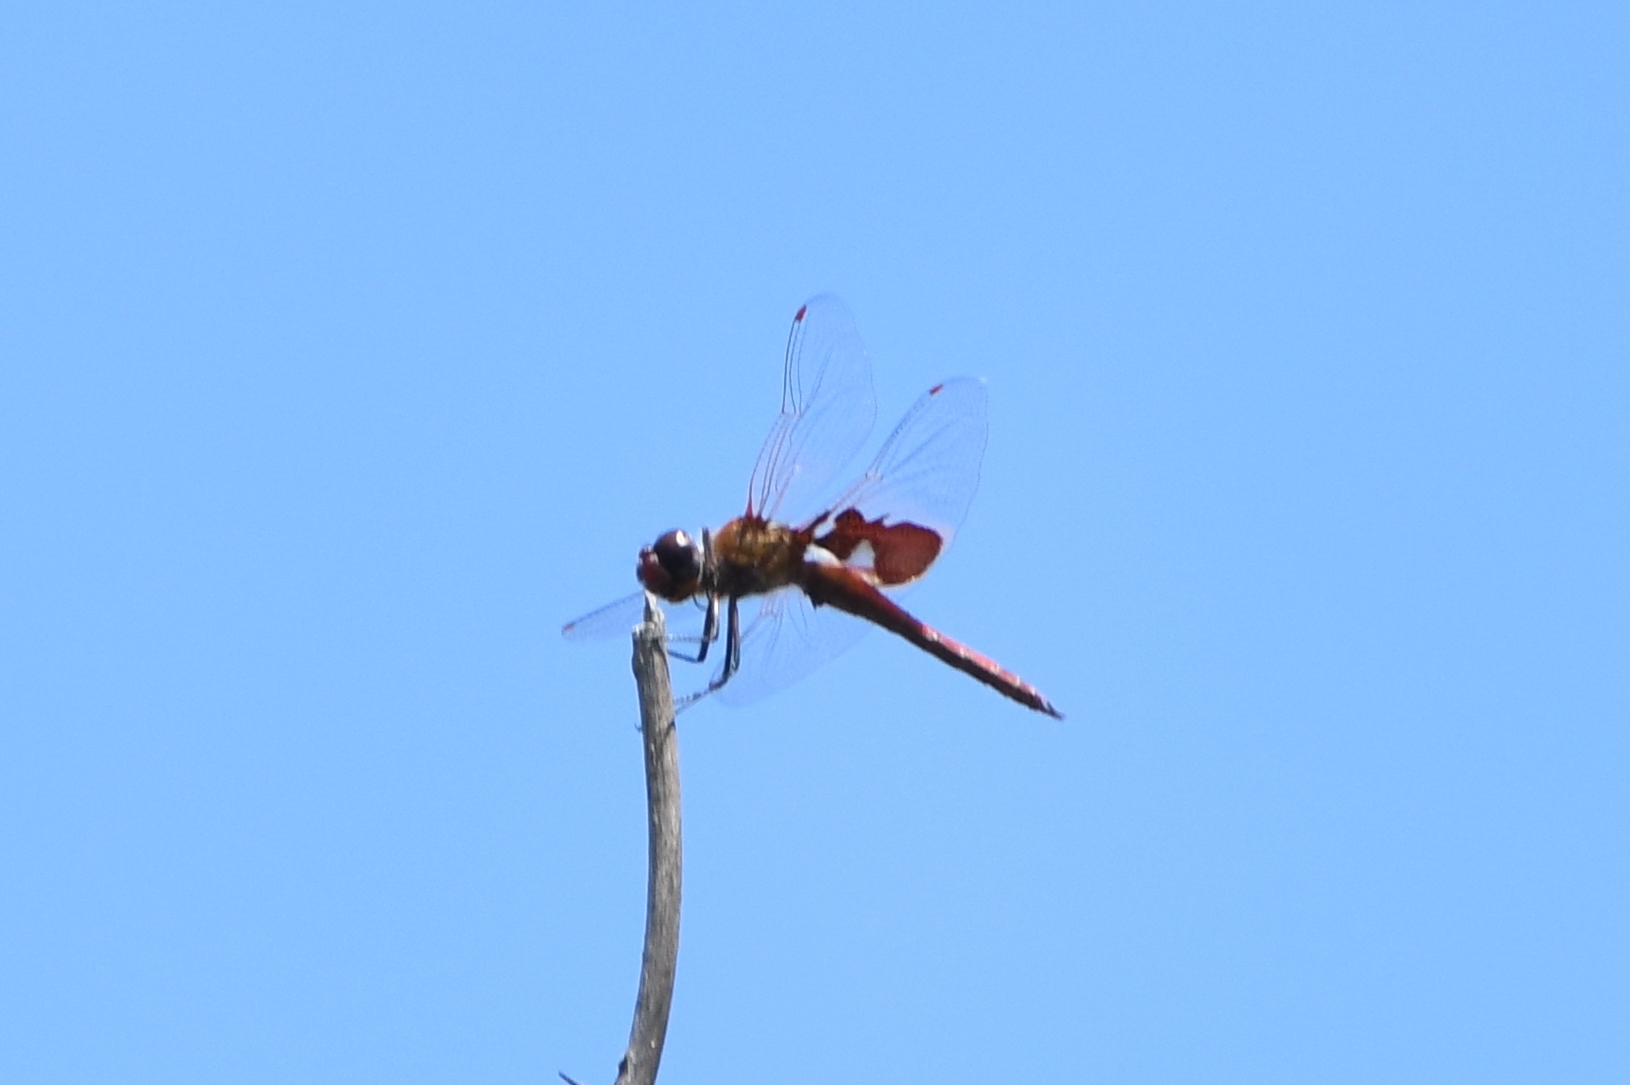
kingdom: Animalia
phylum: Arthropoda
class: Insecta
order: Odonata
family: Libellulidae
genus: Tramea
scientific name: Tramea onusta
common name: Red saddlebags
